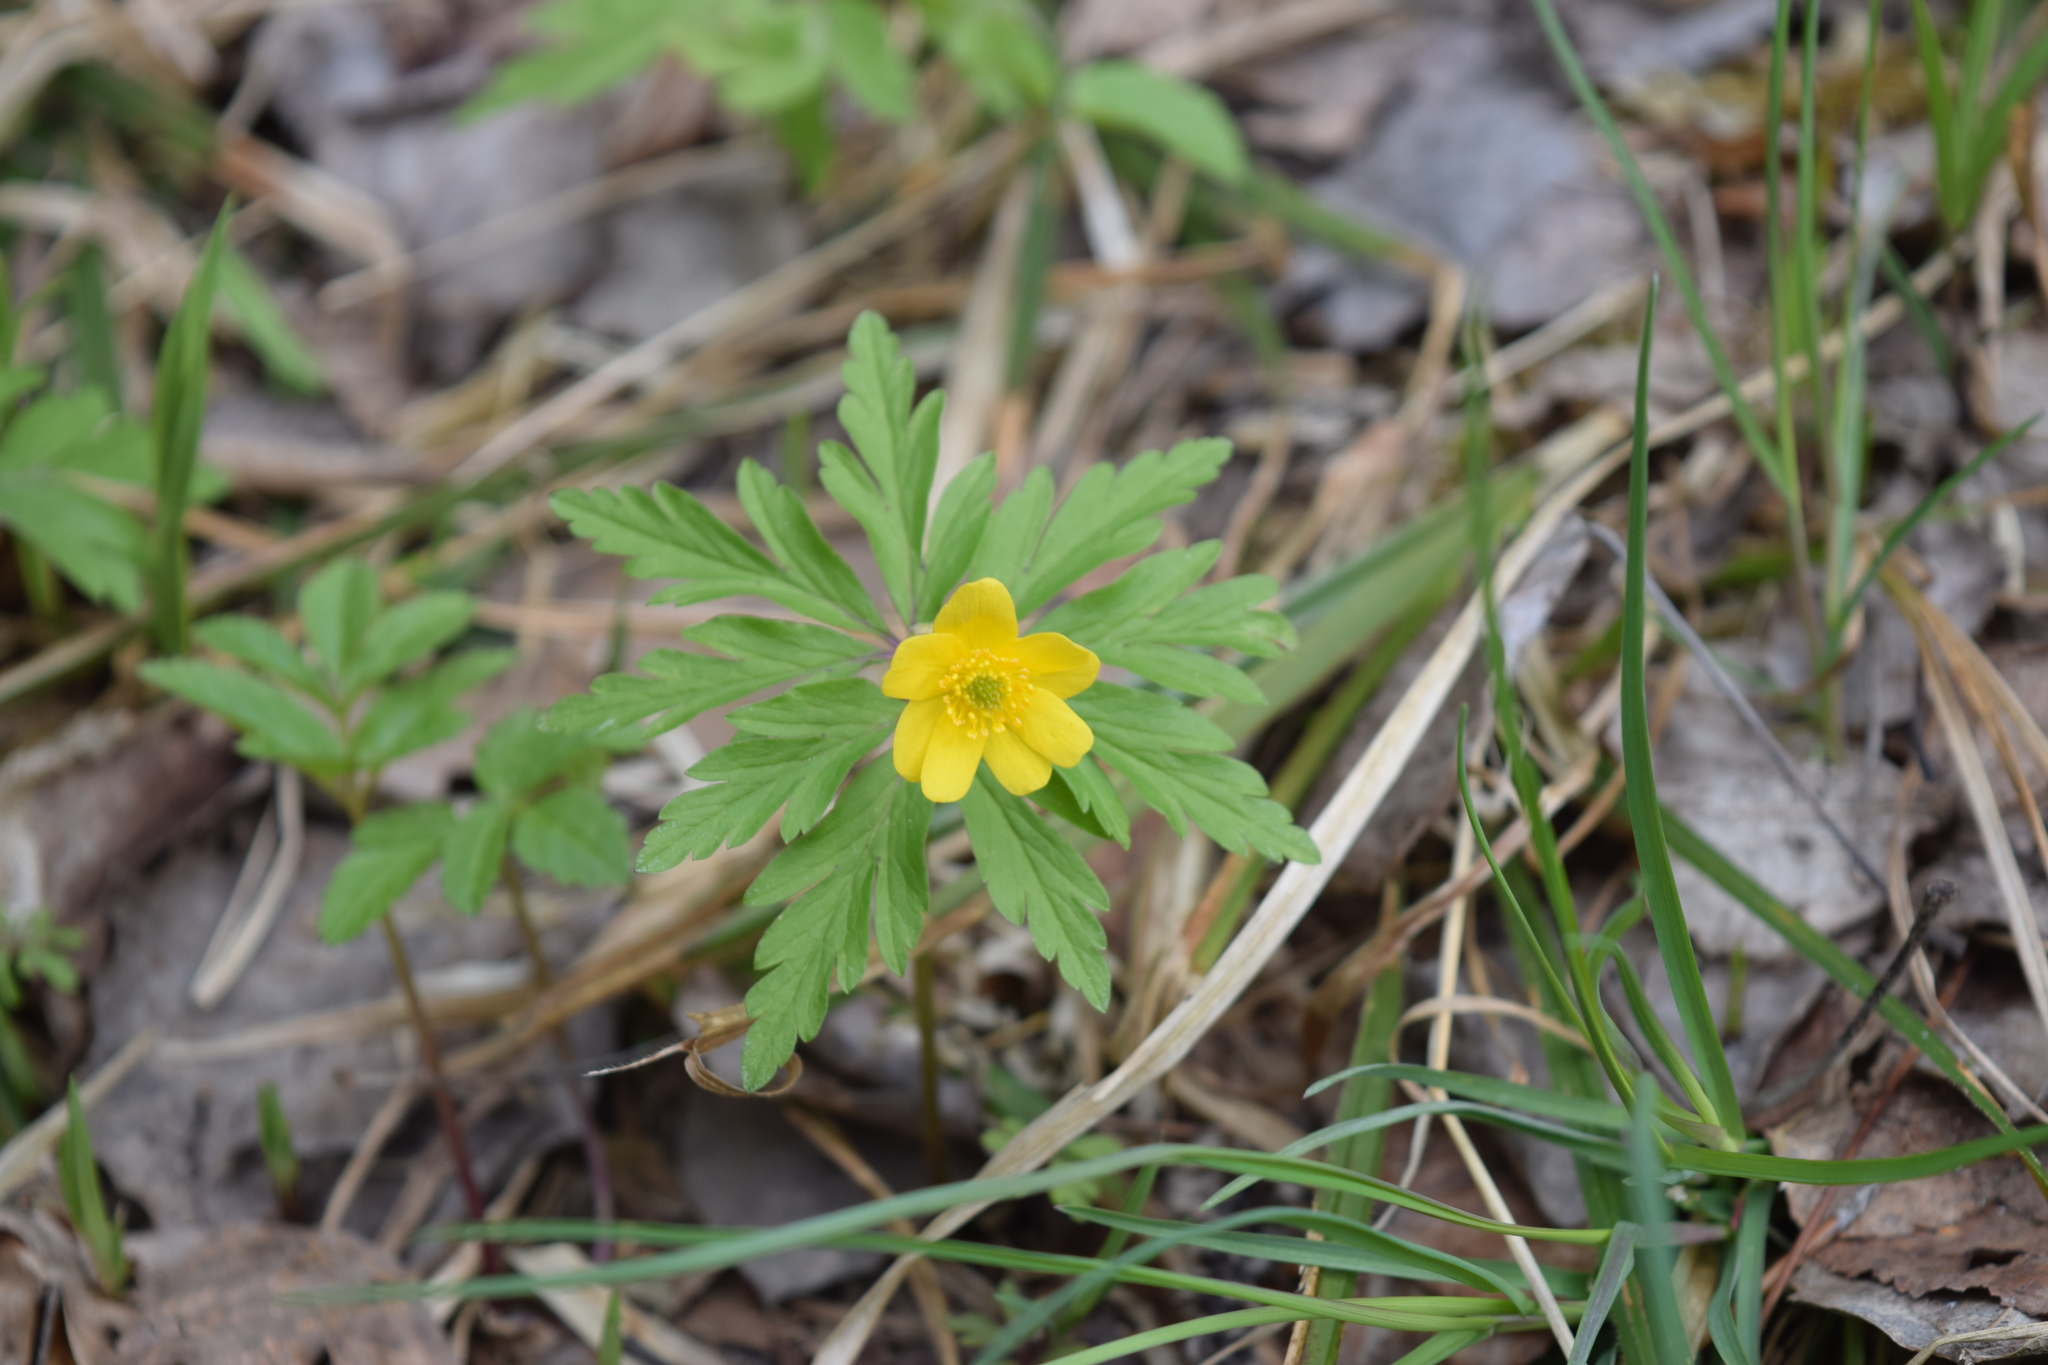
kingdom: Plantae
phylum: Tracheophyta
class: Magnoliopsida
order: Ranunculales
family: Ranunculaceae
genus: Anemone
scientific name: Anemone ranunculoides
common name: Yellow anemone
